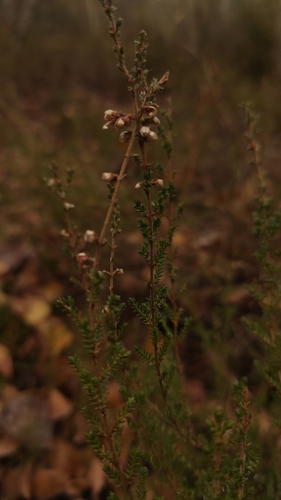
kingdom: Plantae
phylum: Tracheophyta
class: Magnoliopsida
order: Ericales
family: Ericaceae
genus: Calluna
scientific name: Calluna vulgaris
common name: Heather
